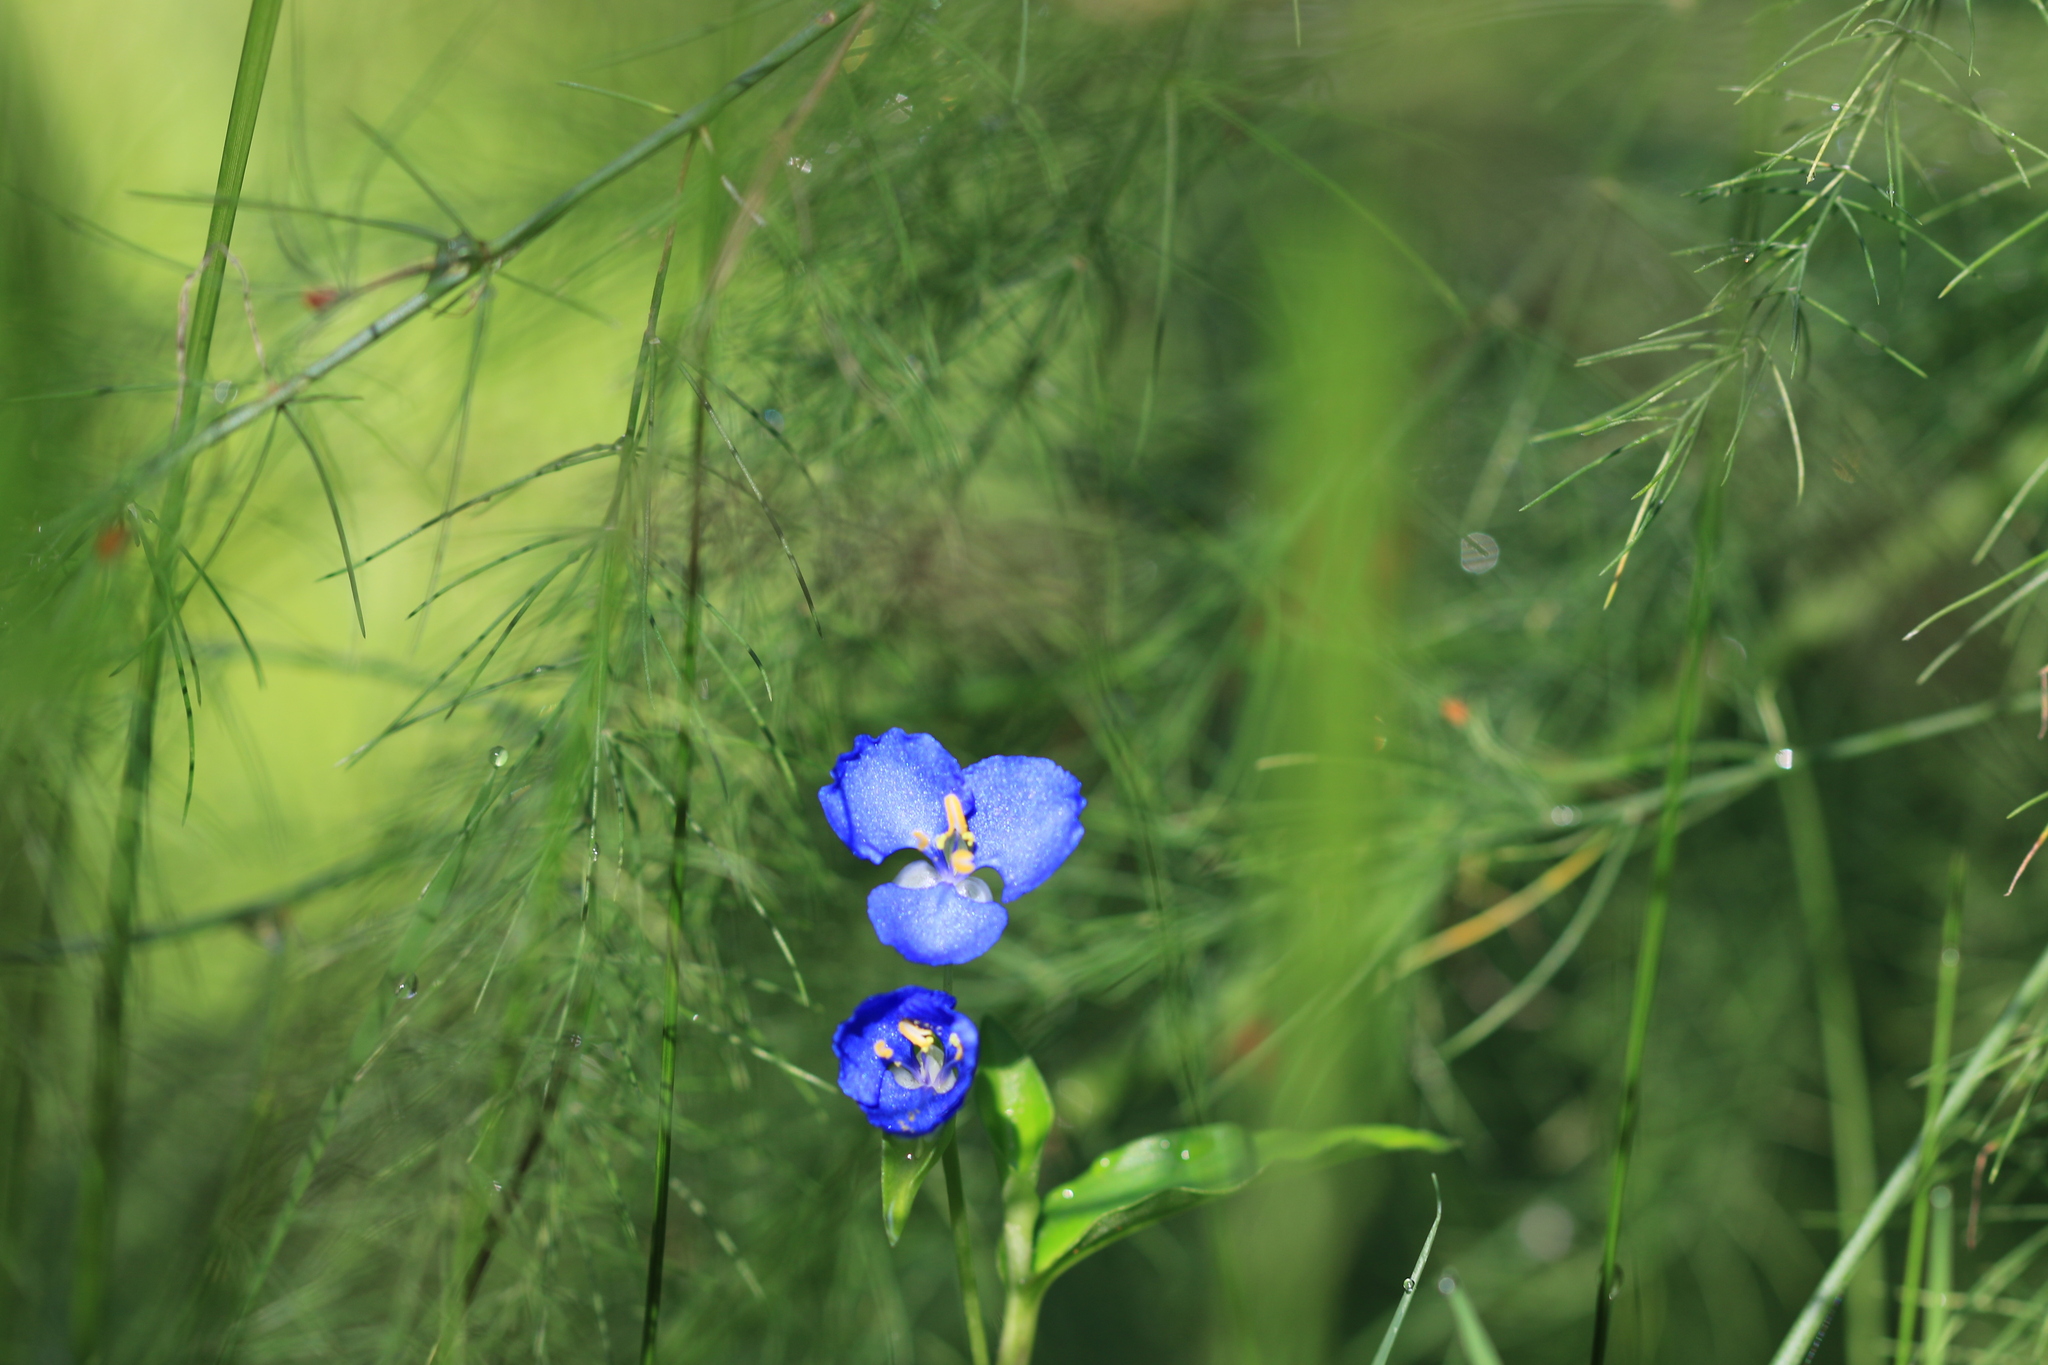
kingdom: Plantae
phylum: Tracheophyta
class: Liliopsida
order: Commelinales
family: Commelinaceae
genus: Commelina
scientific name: Commelina cyanea
